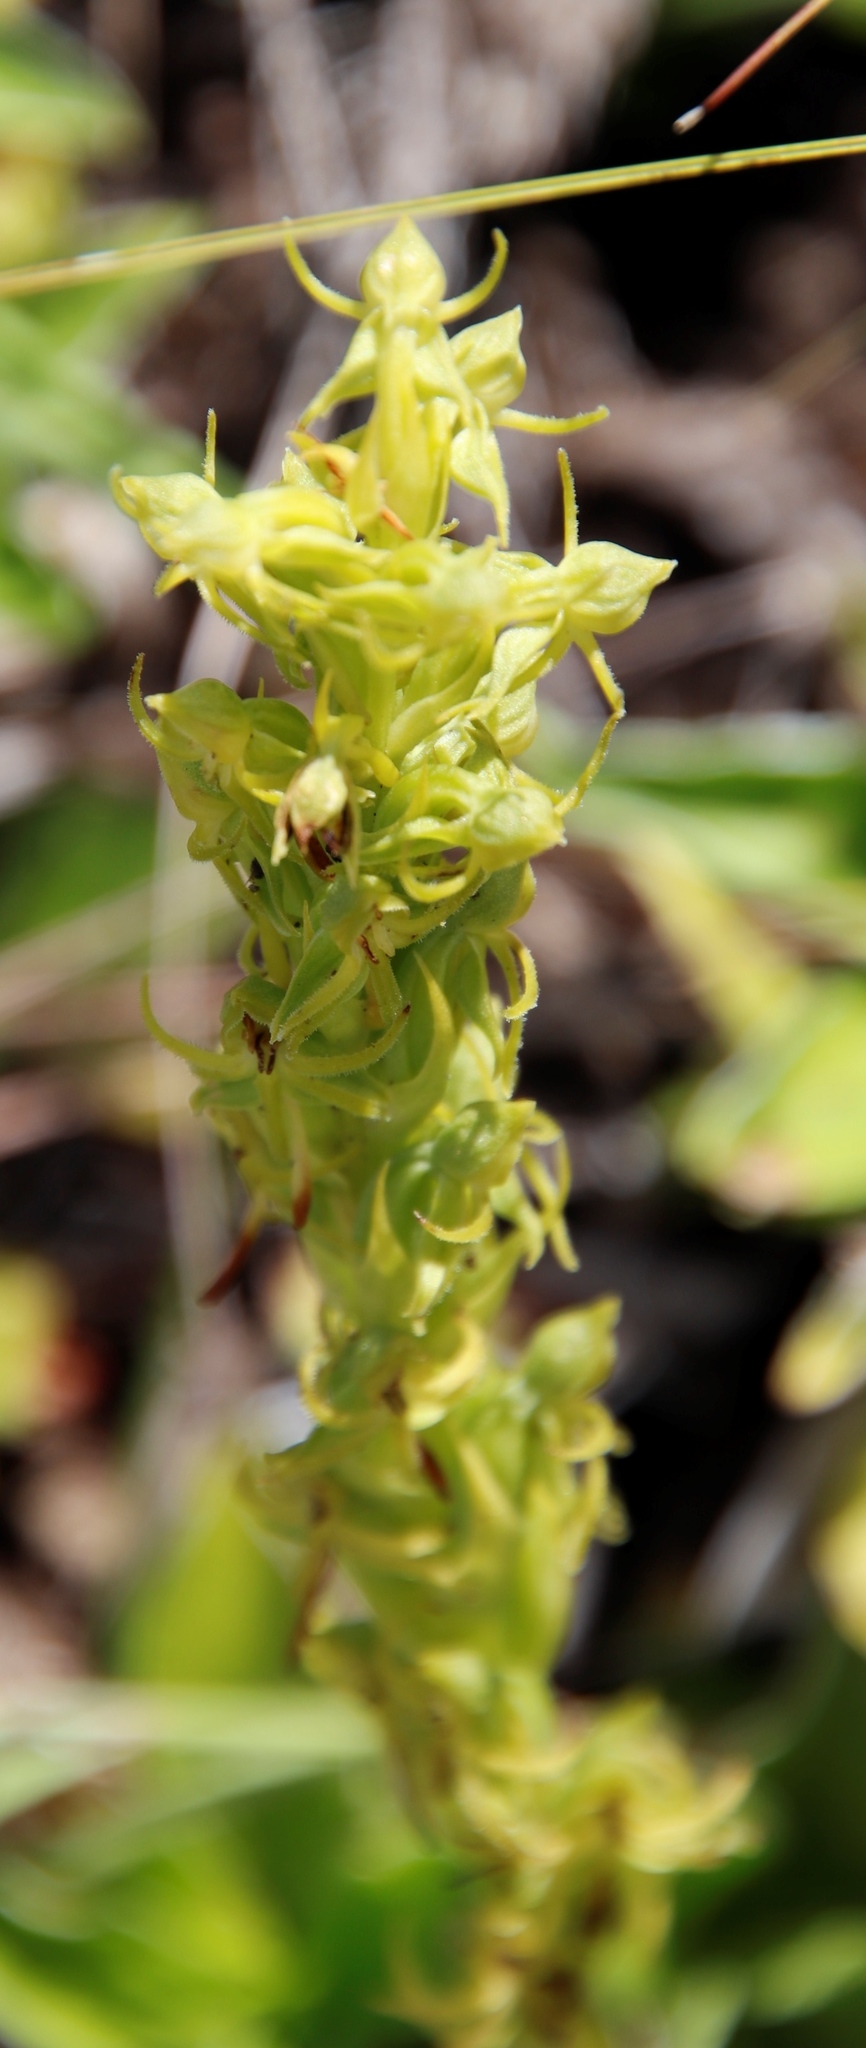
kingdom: Plantae
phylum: Tracheophyta
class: Liliopsida
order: Asparagales
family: Orchidaceae
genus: Habenaria
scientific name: Habenaria lithophila
